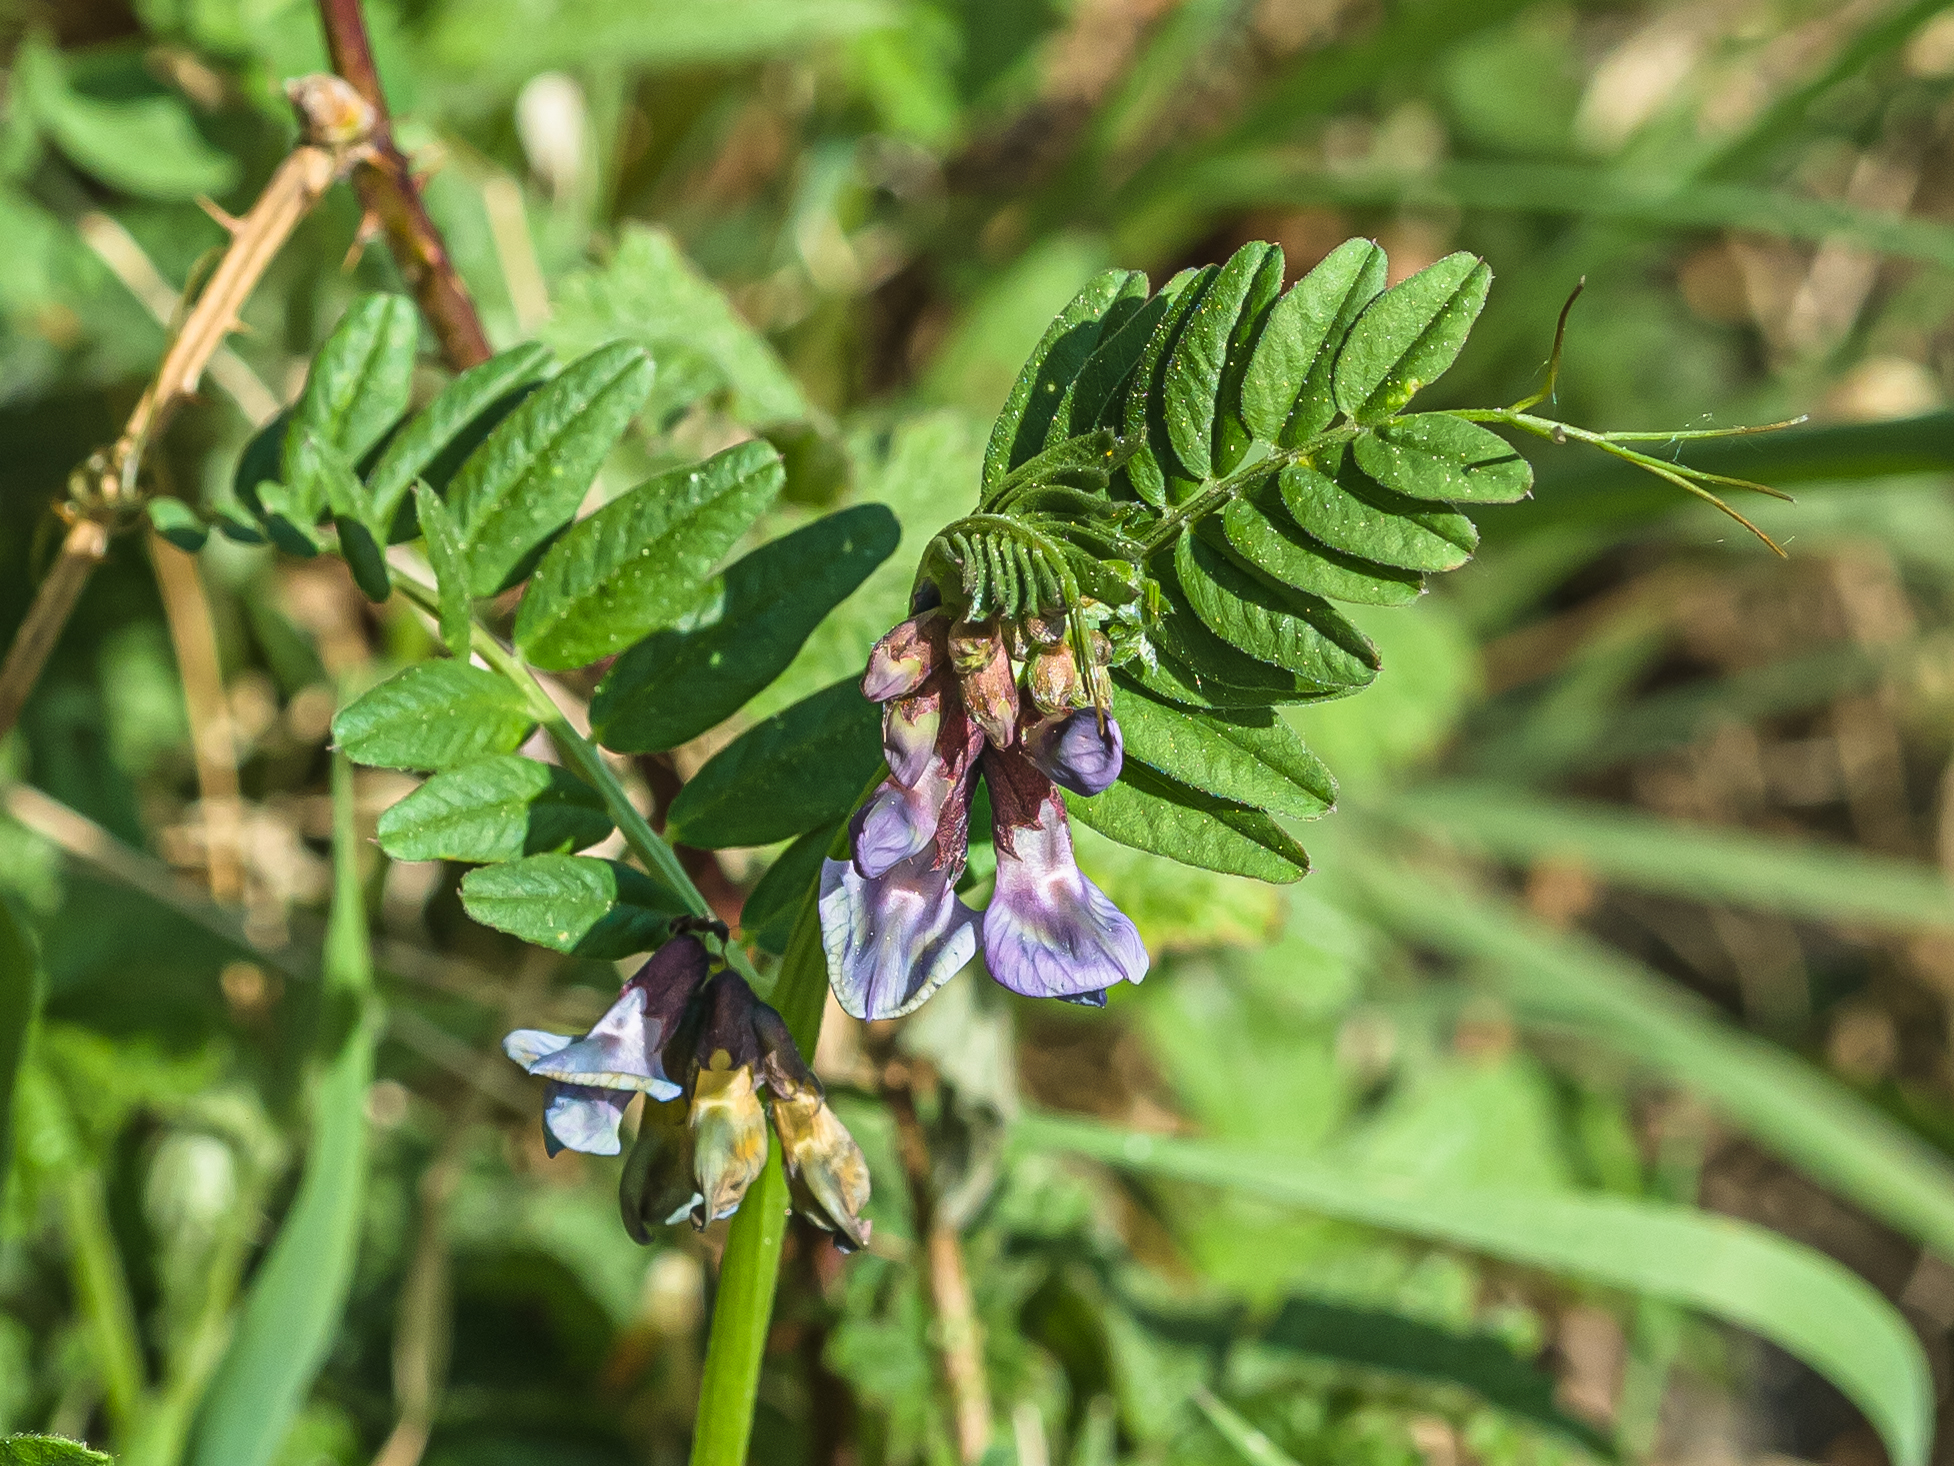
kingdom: Plantae
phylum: Tracheophyta
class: Magnoliopsida
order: Fabales
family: Fabaceae
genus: Vicia
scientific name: Vicia sepium
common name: Bush vetch
